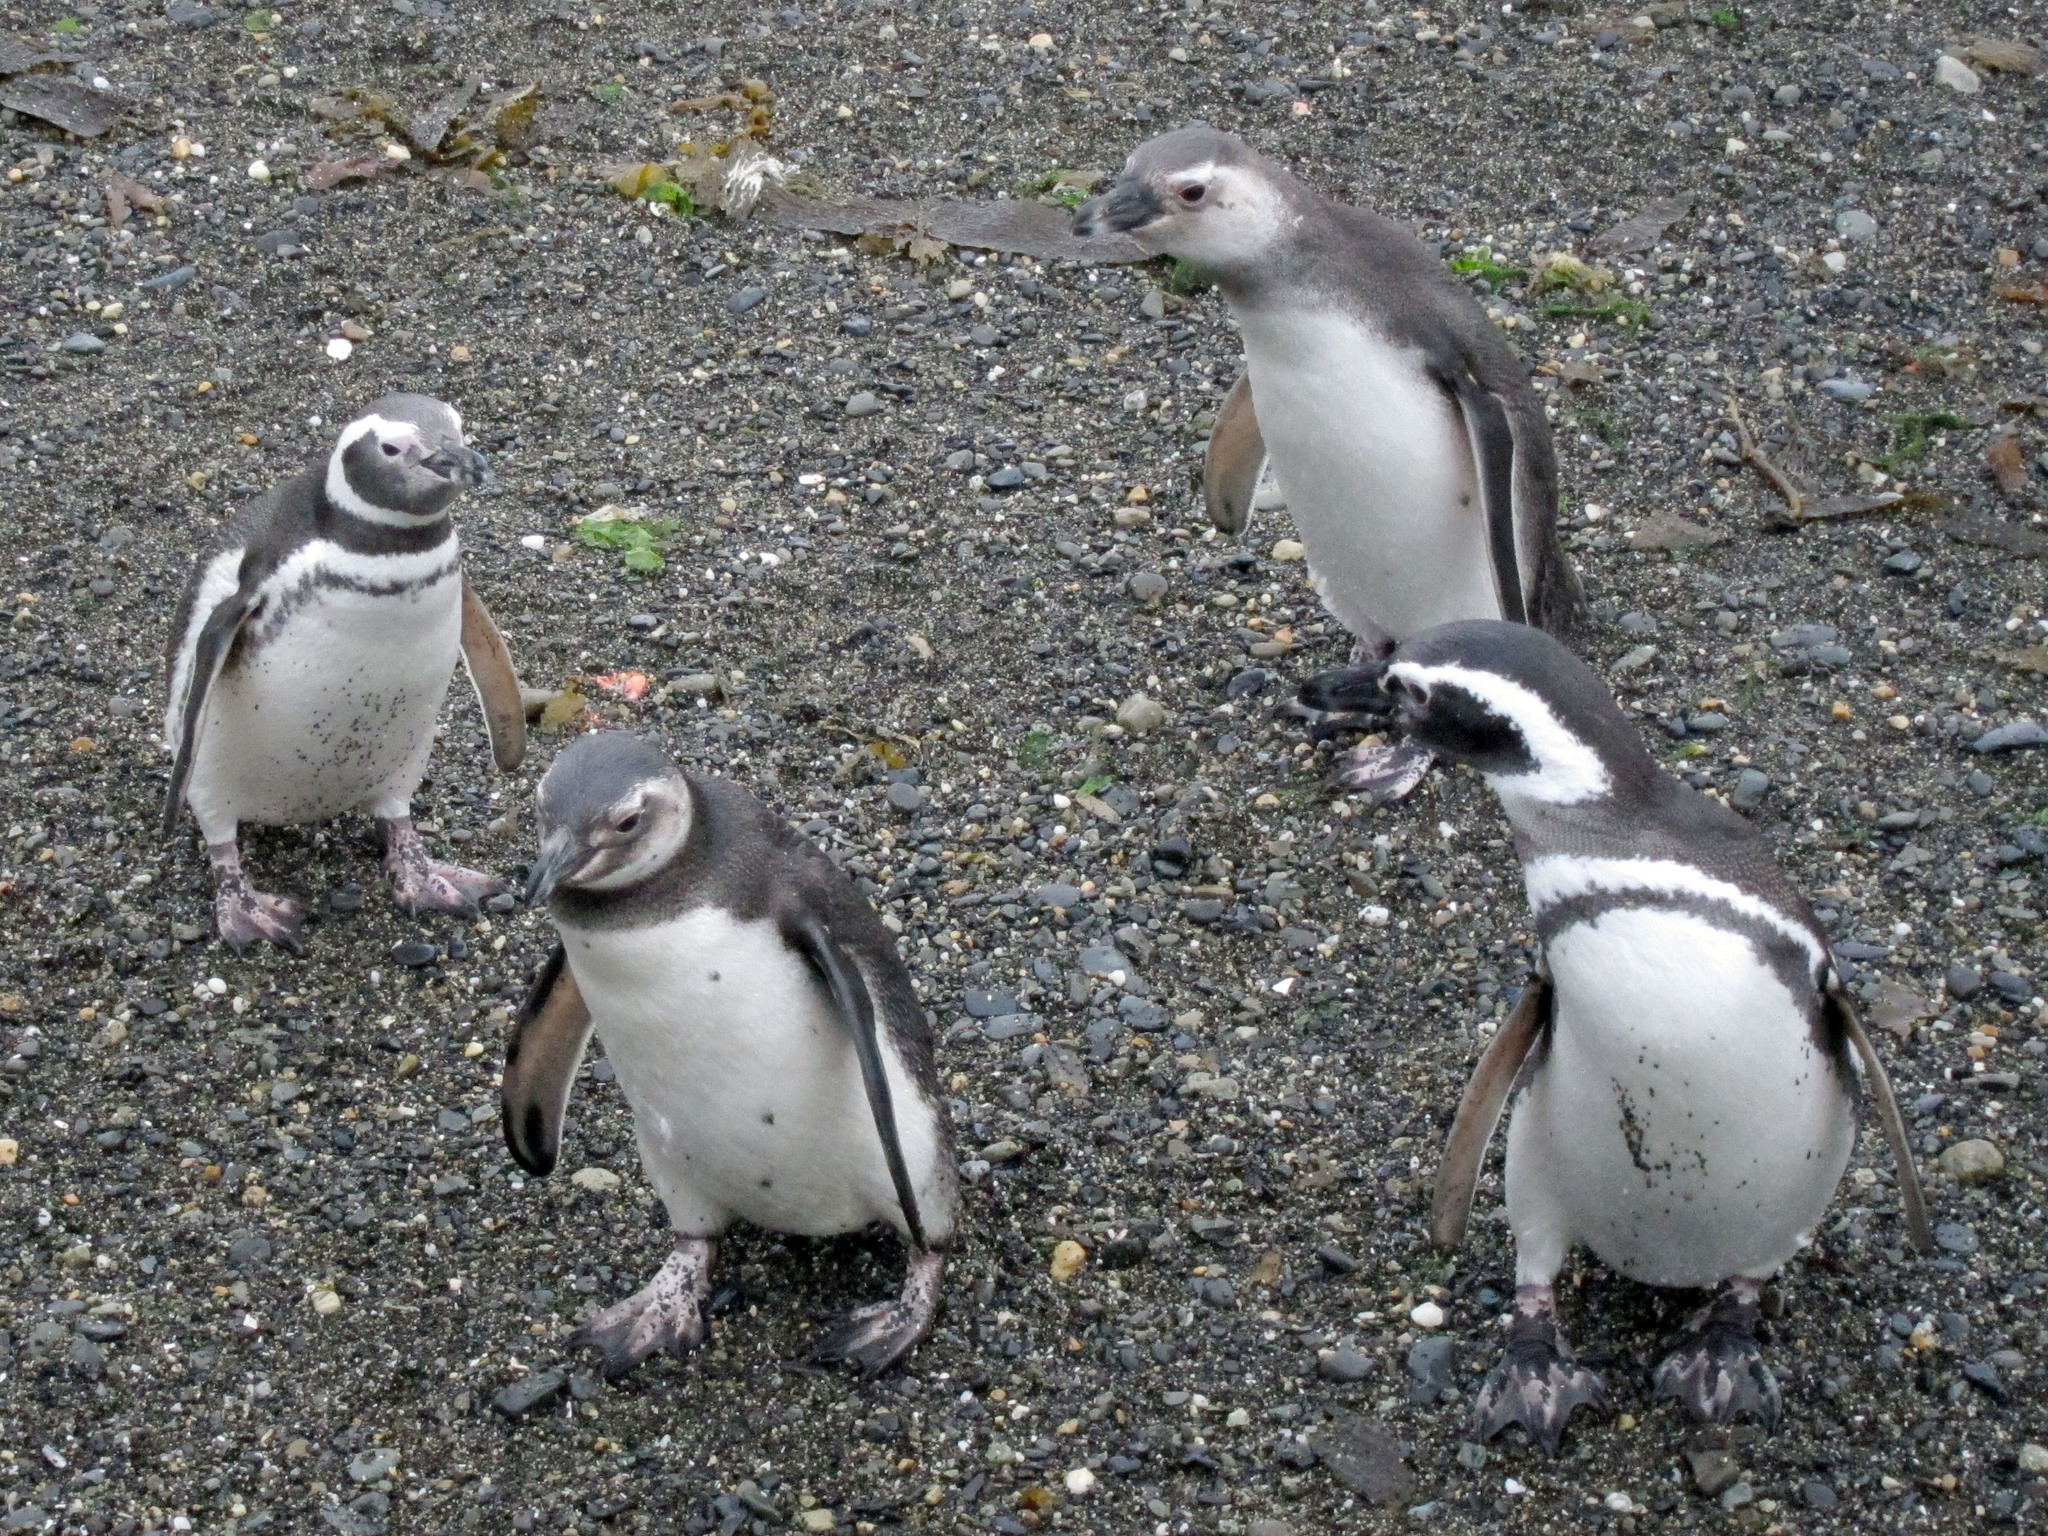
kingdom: Animalia
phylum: Chordata
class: Aves
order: Sphenisciformes
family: Spheniscidae
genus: Spheniscus
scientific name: Spheniscus magellanicus
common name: Magellanic penguin
